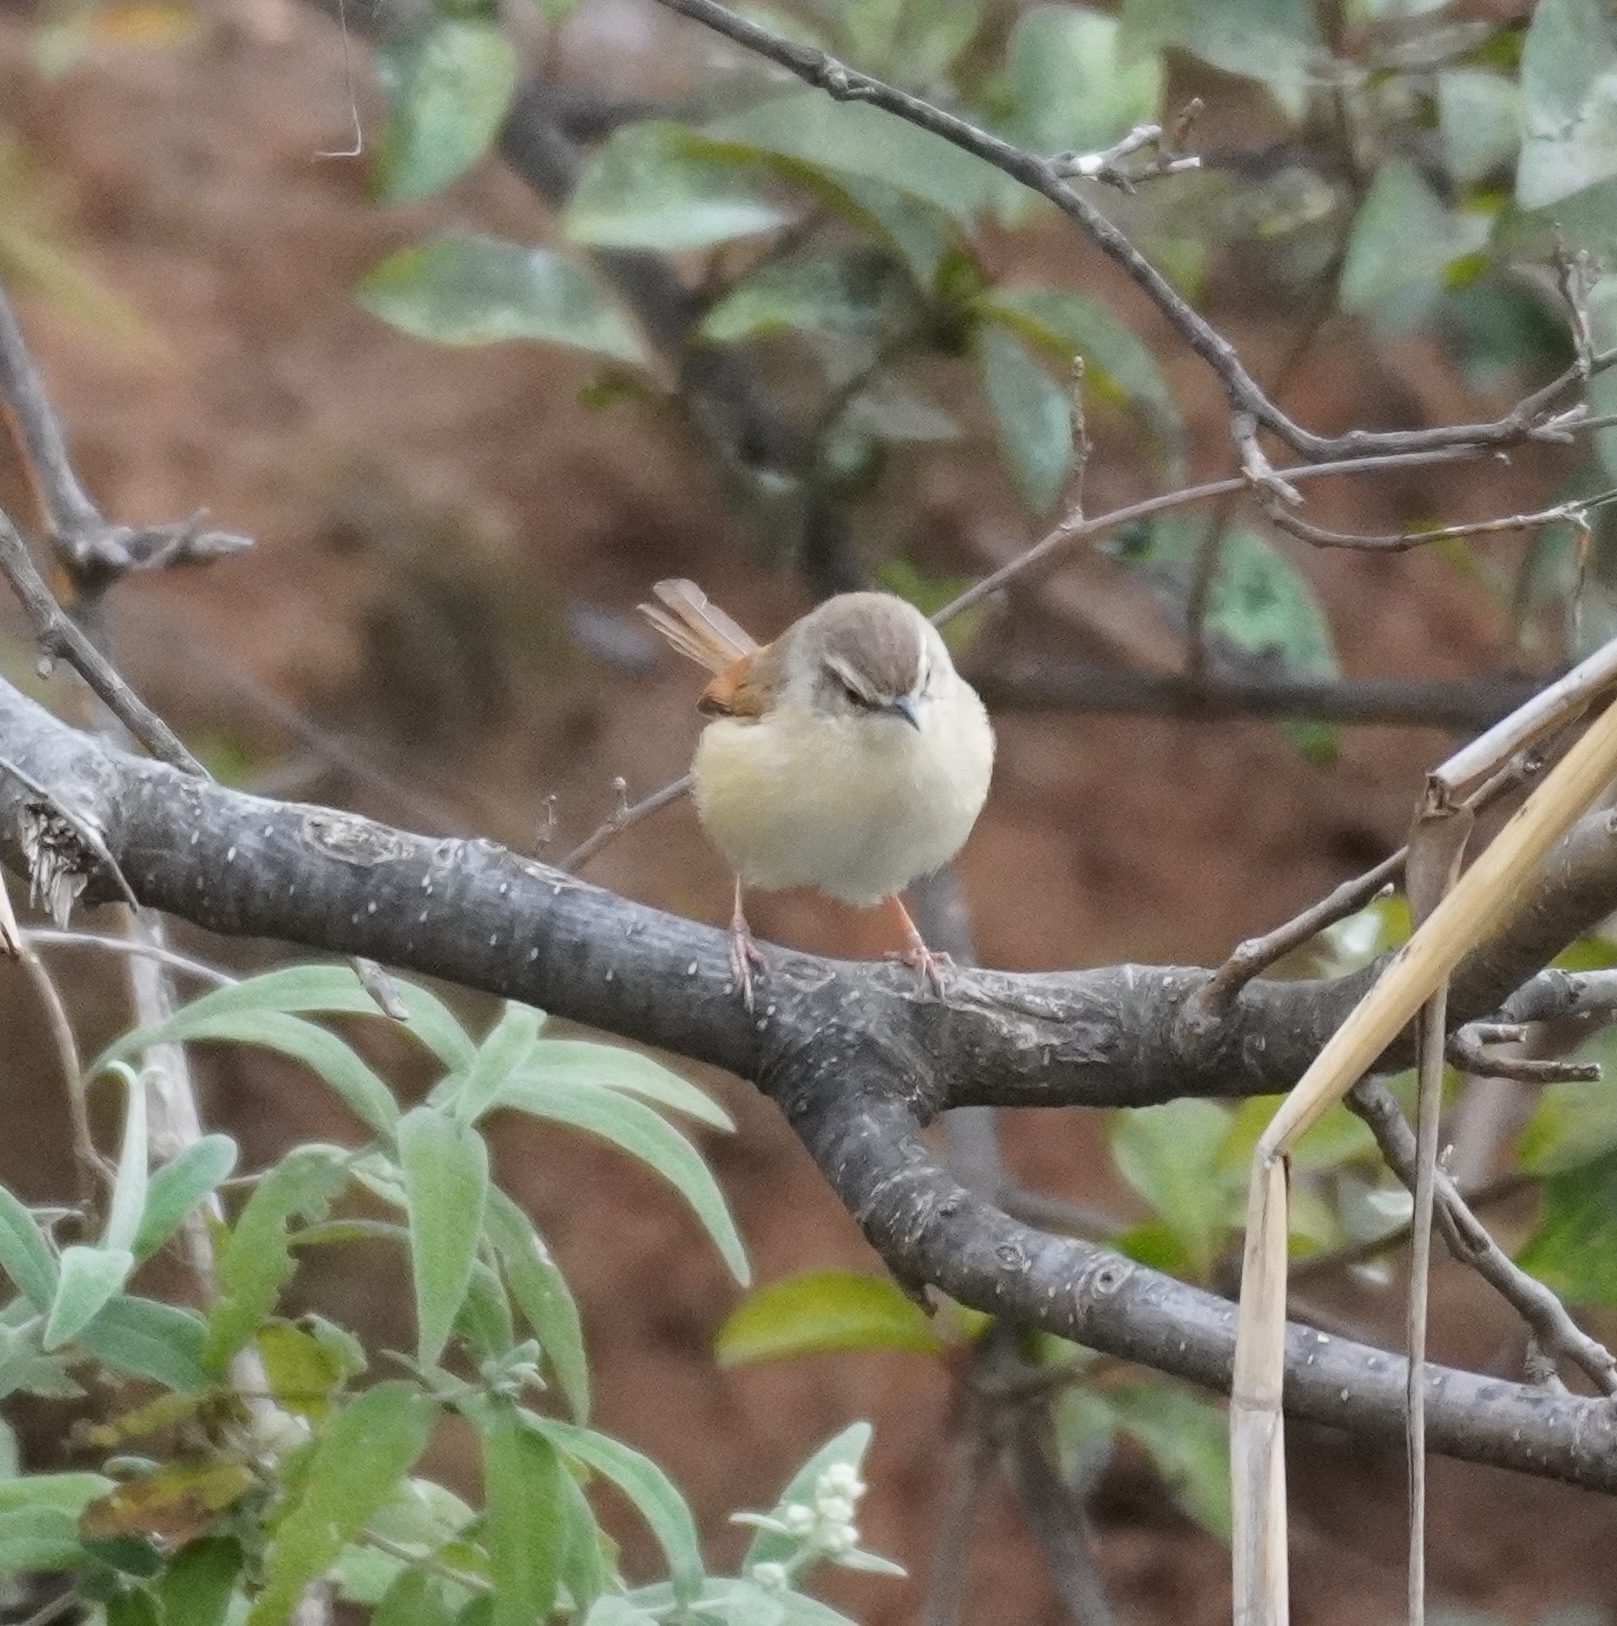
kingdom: Animalia
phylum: Chordata
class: Aves
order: Passeriformes
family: Cisticolidae
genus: Prinia
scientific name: Prinia subflava
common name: Tawny-flanked prinia
